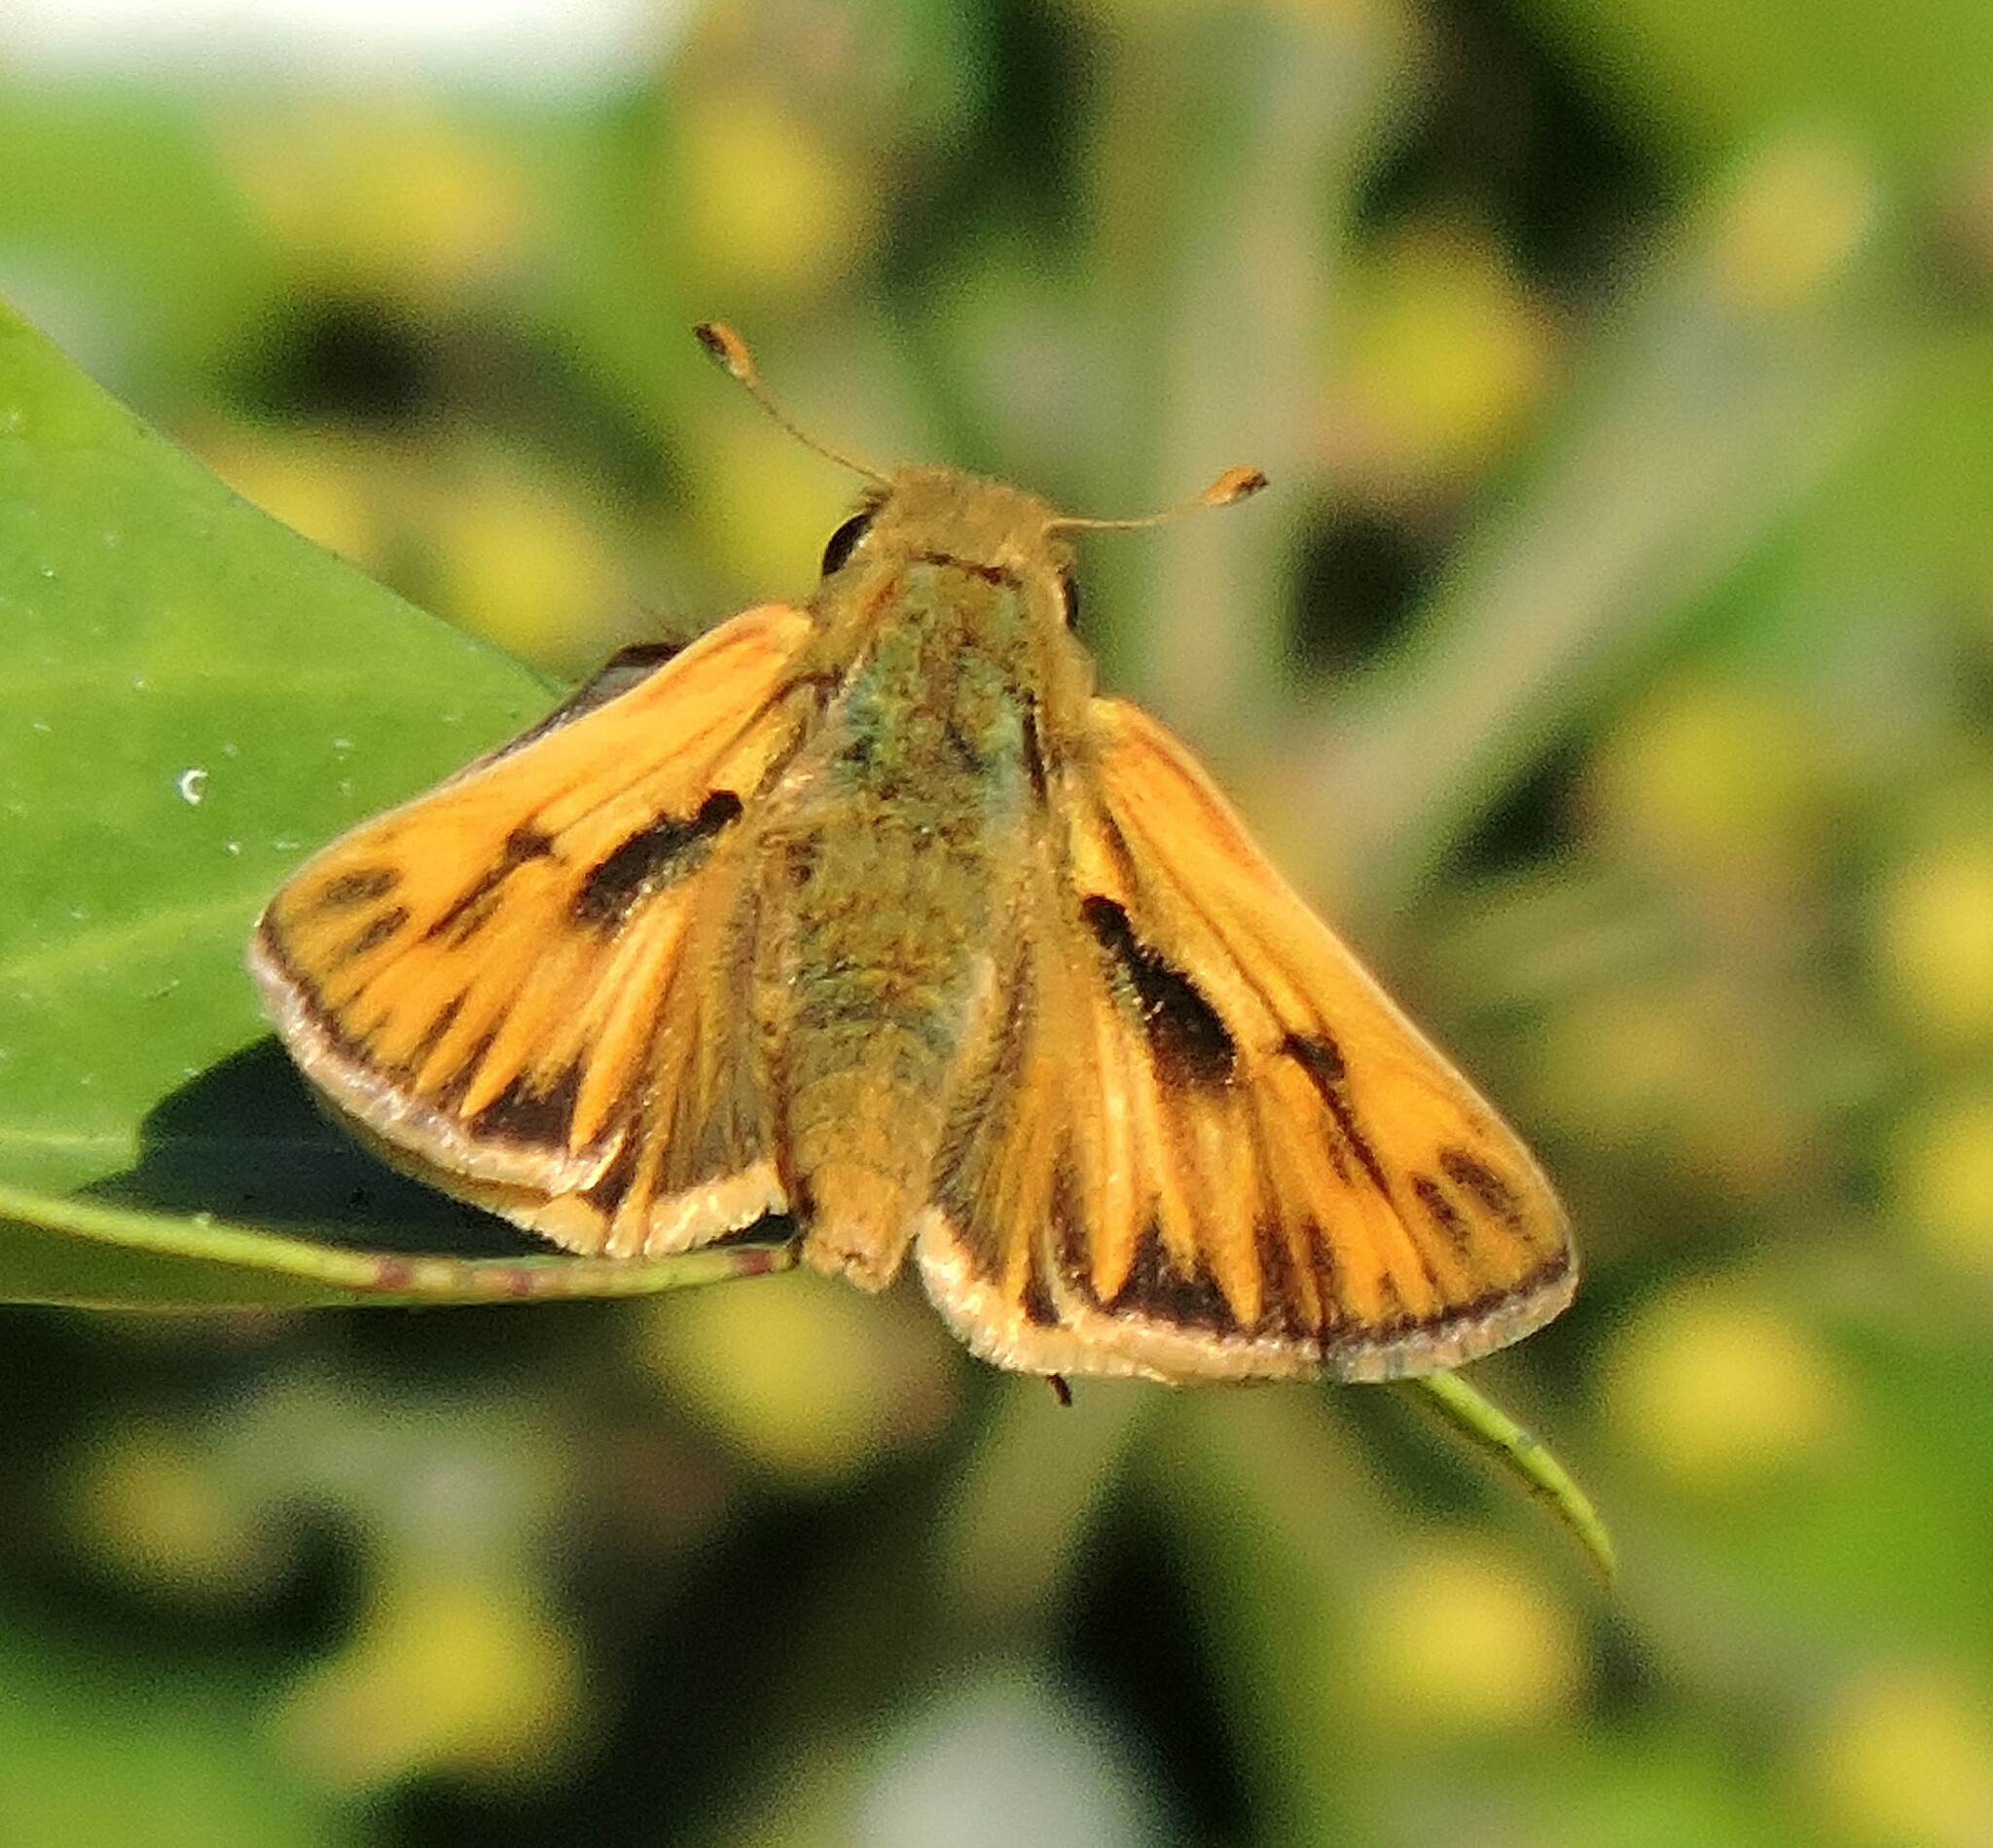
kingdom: Animalia
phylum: Arthropoda
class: Insecta
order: Lepidoptera
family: Hesperiidae
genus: Hylephila
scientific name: Hylephila phyleus
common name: Fiery skipper
